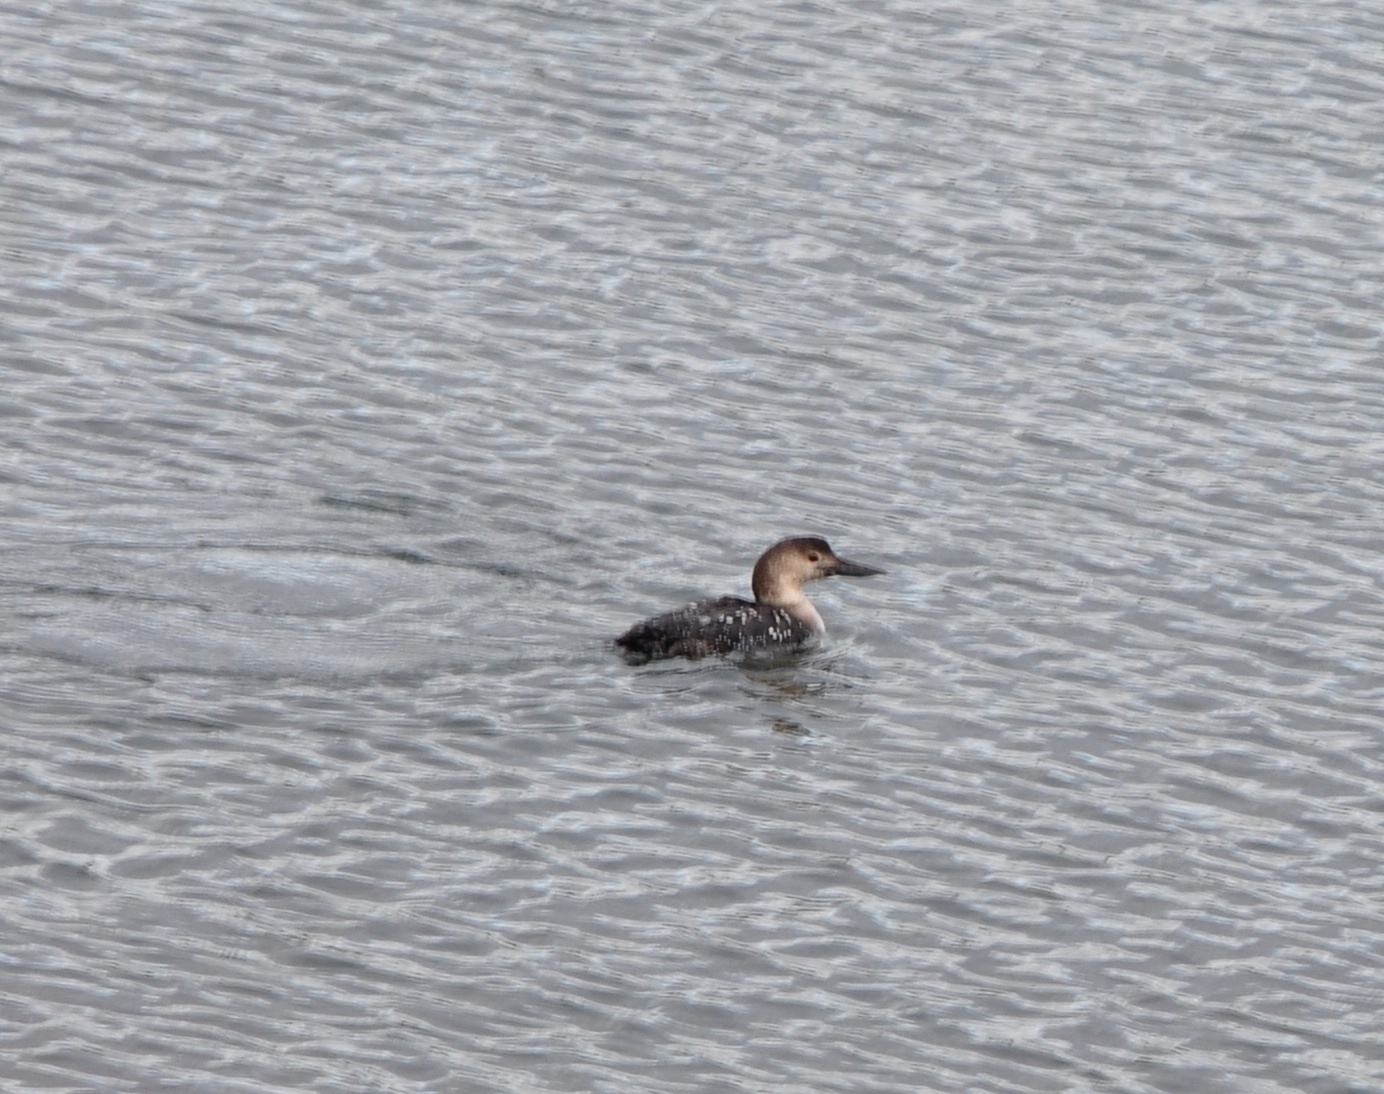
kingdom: Animalia
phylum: Chordata
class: Aves
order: Gaviiformes
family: Gaviidae
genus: Gavia
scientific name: Gavia immer
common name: Common loon
